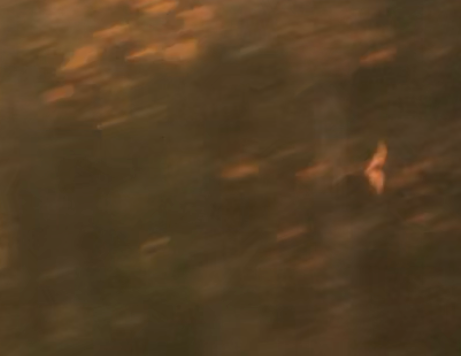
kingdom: Animalia
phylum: Chordata
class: Mammalia
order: Chiroptera
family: Vespertilionidae
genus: Lasiurus
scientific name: Lasiurus borealis
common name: Eastern red bat
